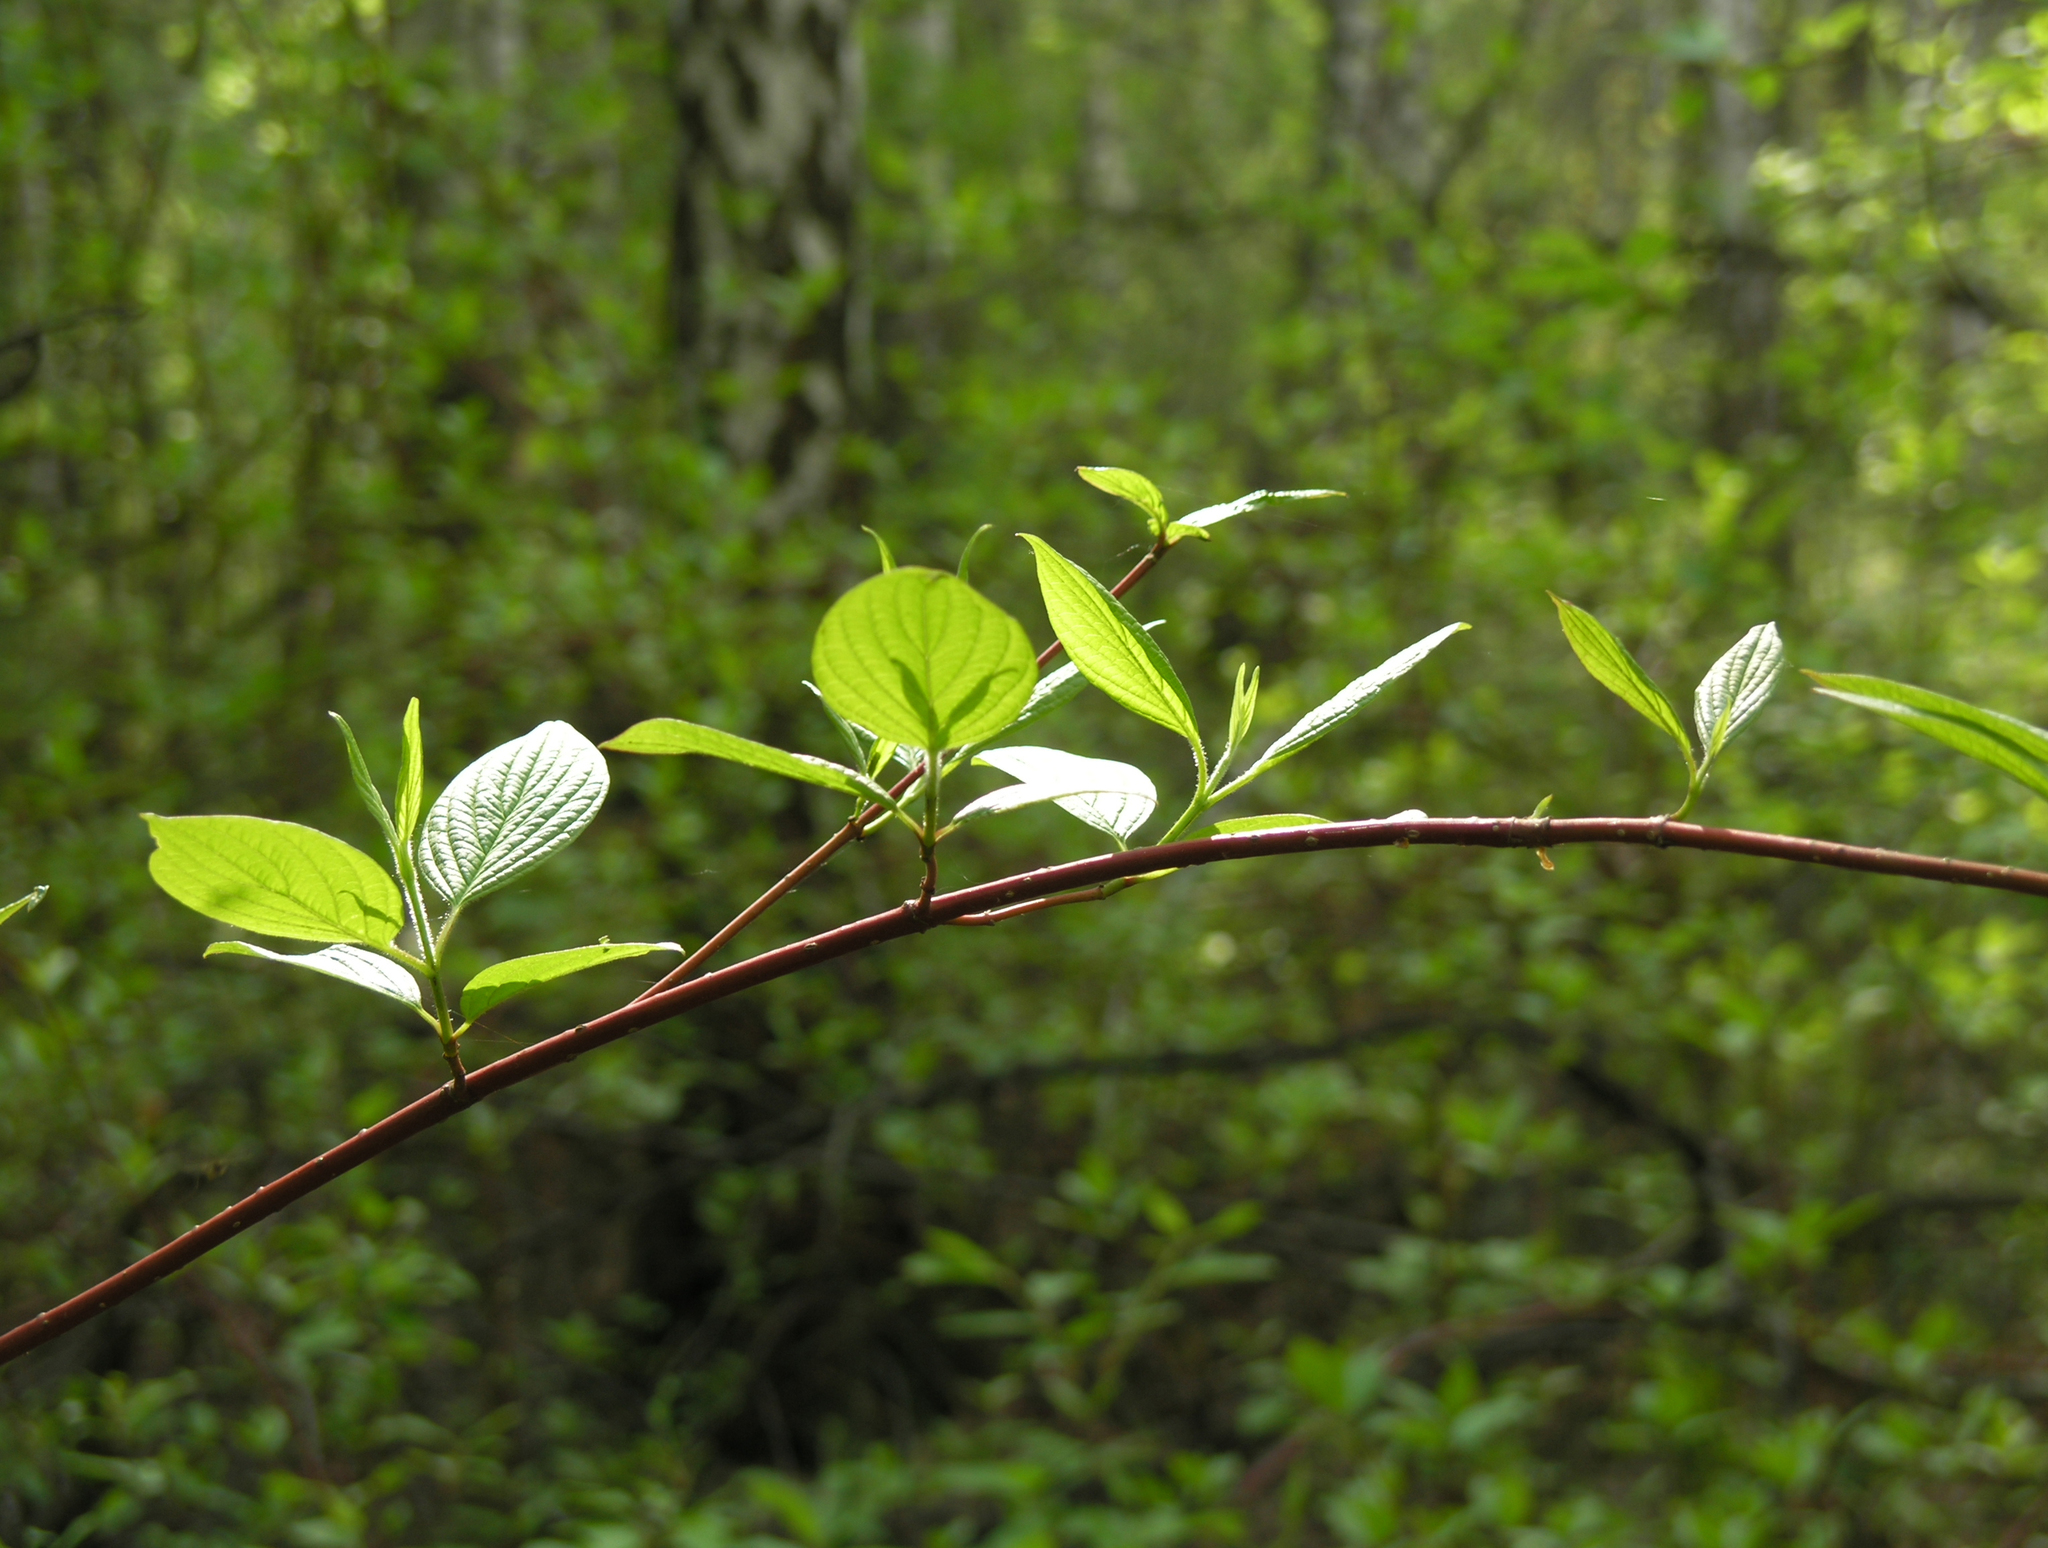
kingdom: Plantae
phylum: Tracheophyta
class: Magnoliopsida
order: Cornales
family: Cornaceae
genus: Cornus
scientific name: Cornus alba
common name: White dogwood
